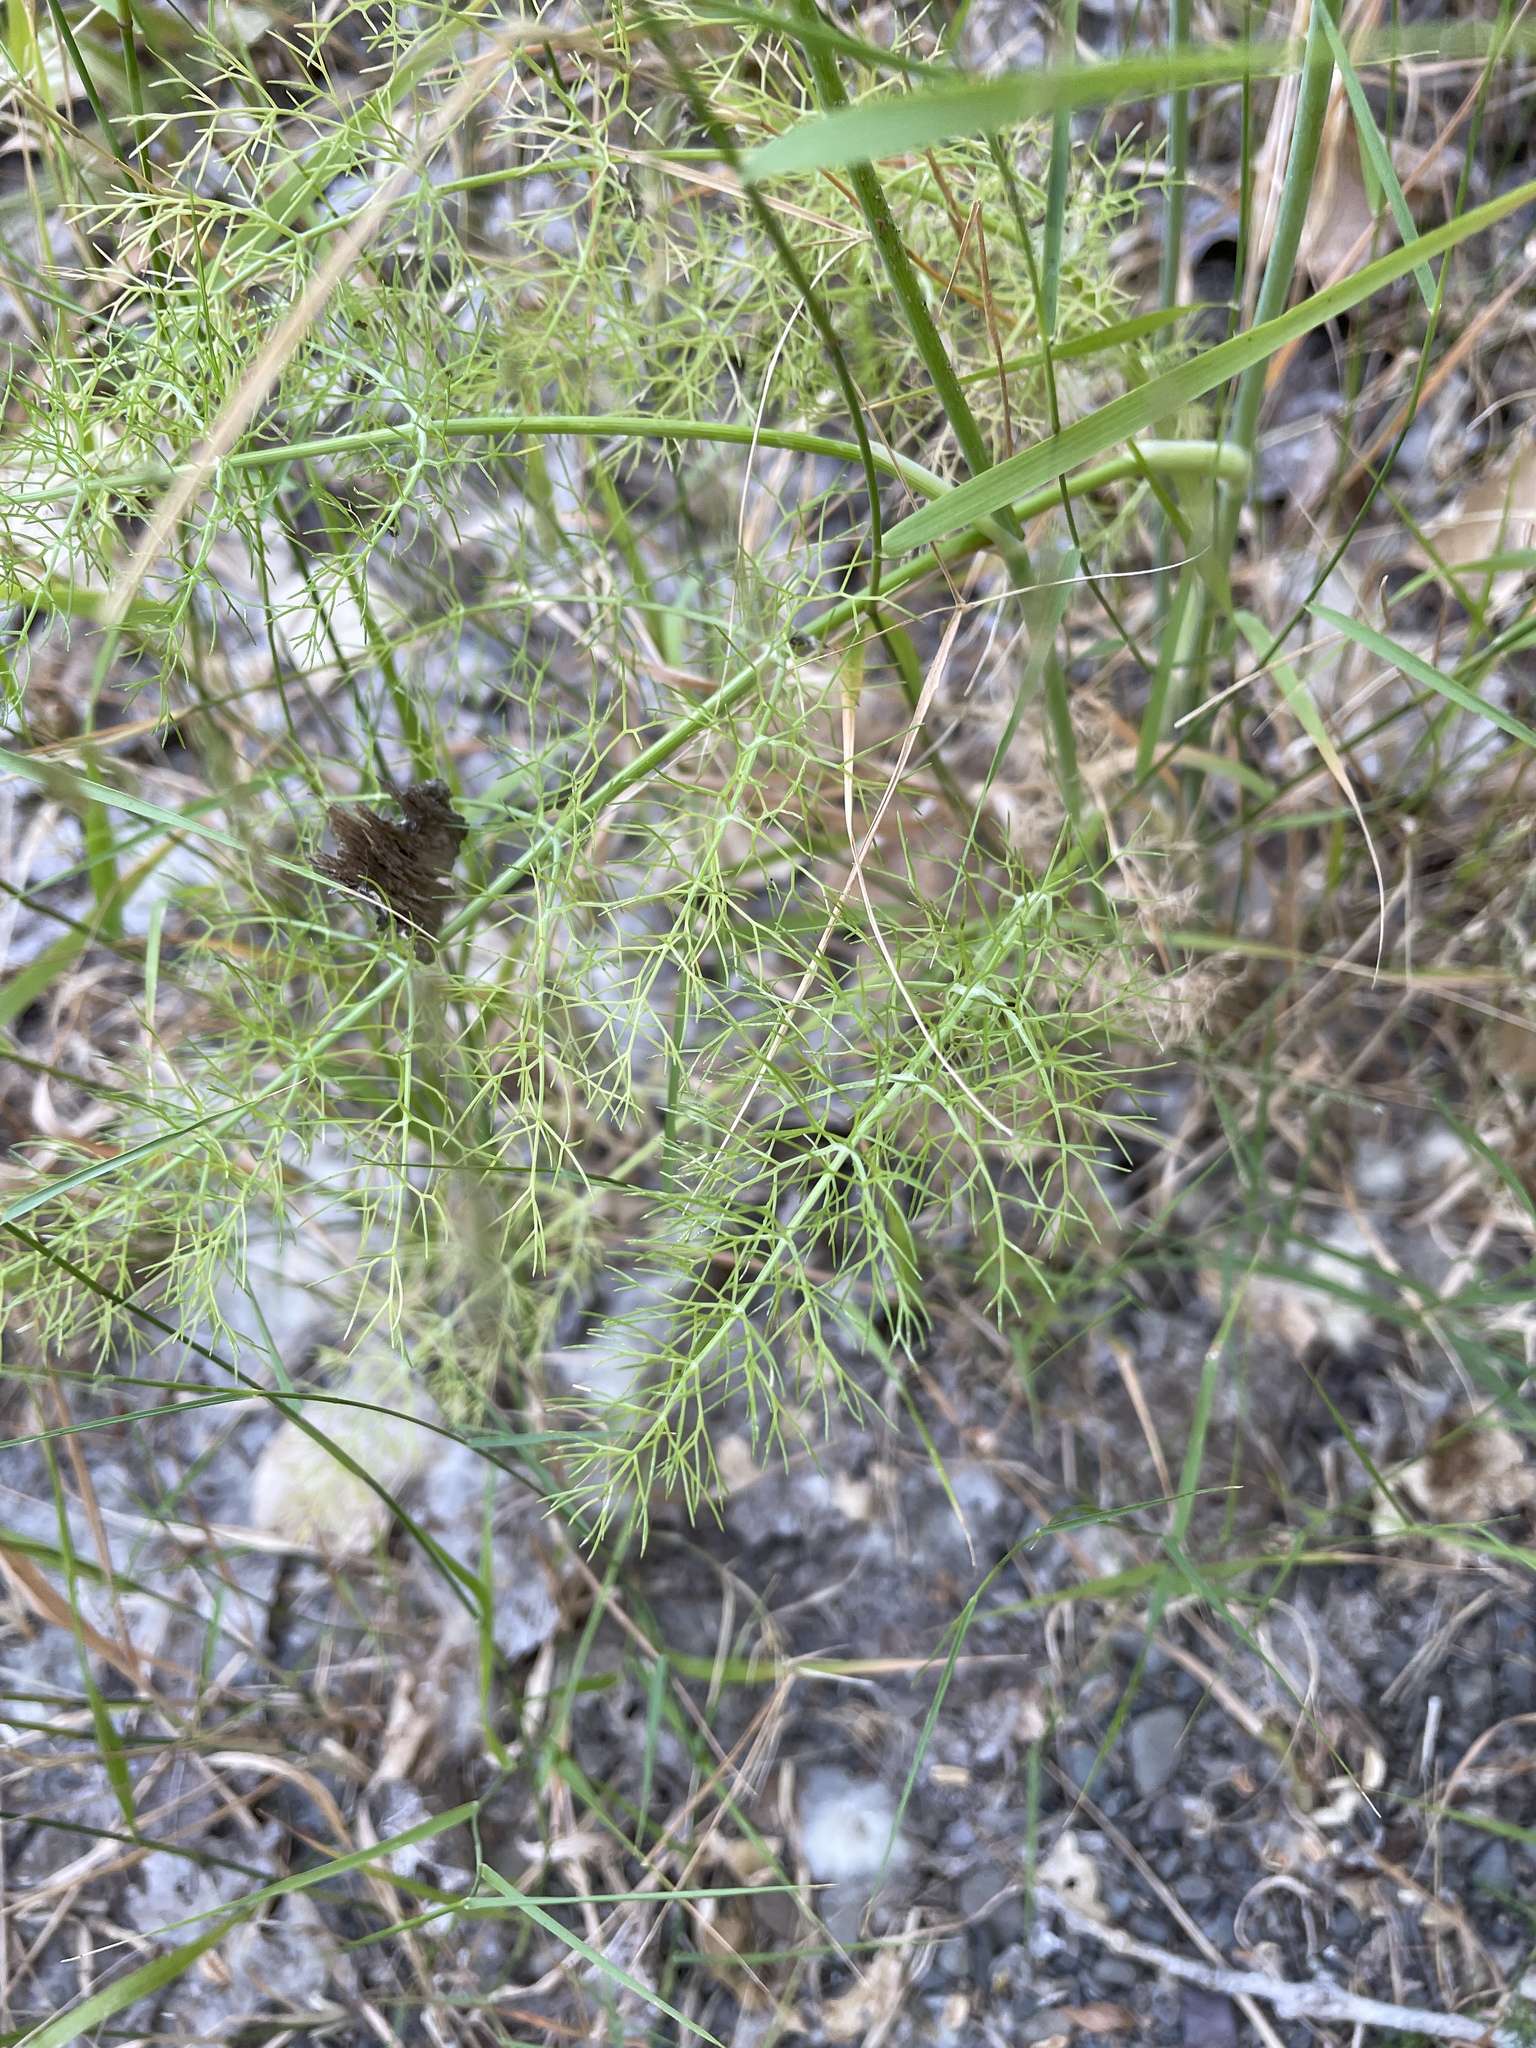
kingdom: Plantae
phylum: Tracheophyta
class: Magnoliopsida
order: Apiales
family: Apiaceae
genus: Foeniculum
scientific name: Foeniculum vulgare
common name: Fennel
